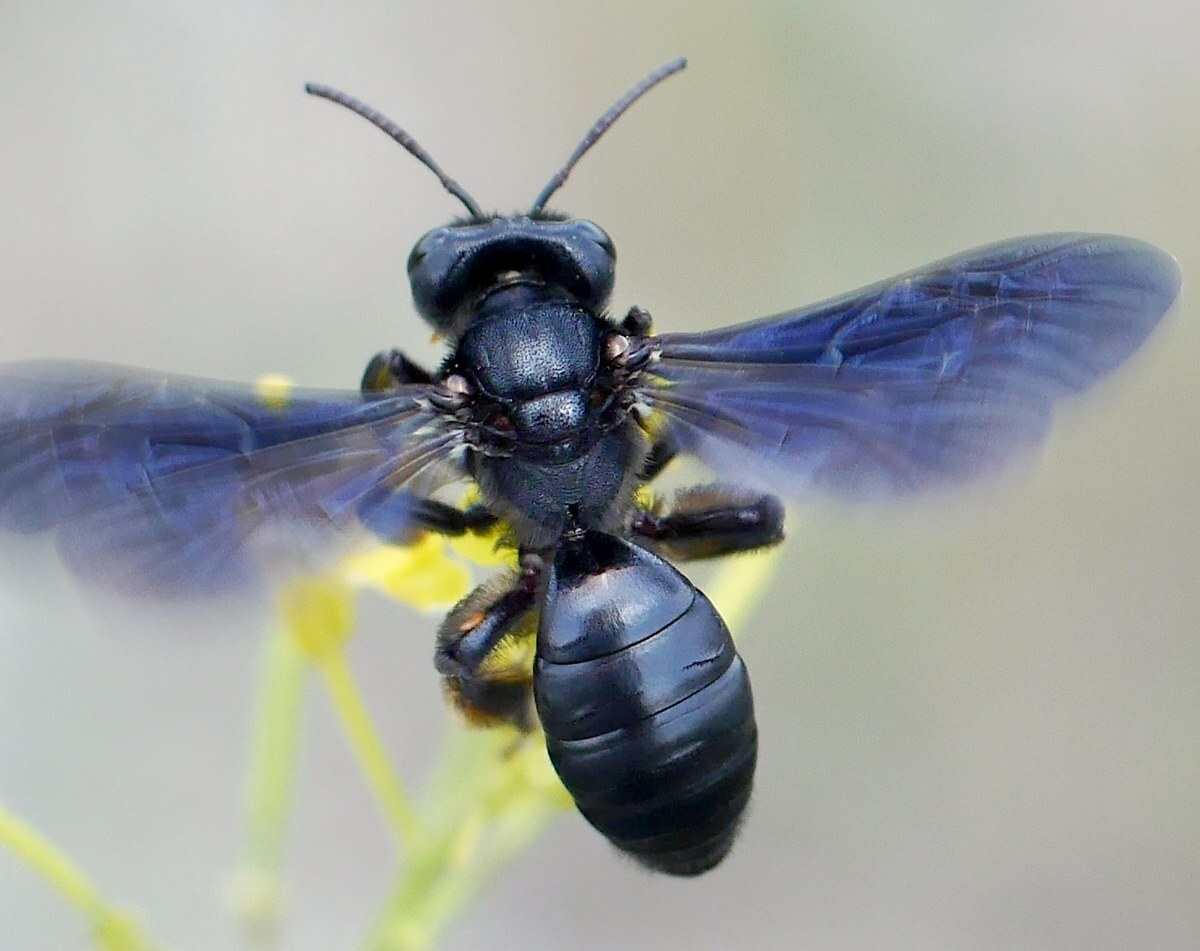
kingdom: Animalia
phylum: Arthropoda
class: Insecta
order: Hymenoptera
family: Andrenidae
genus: Andrena
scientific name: Andrena fuscosa
